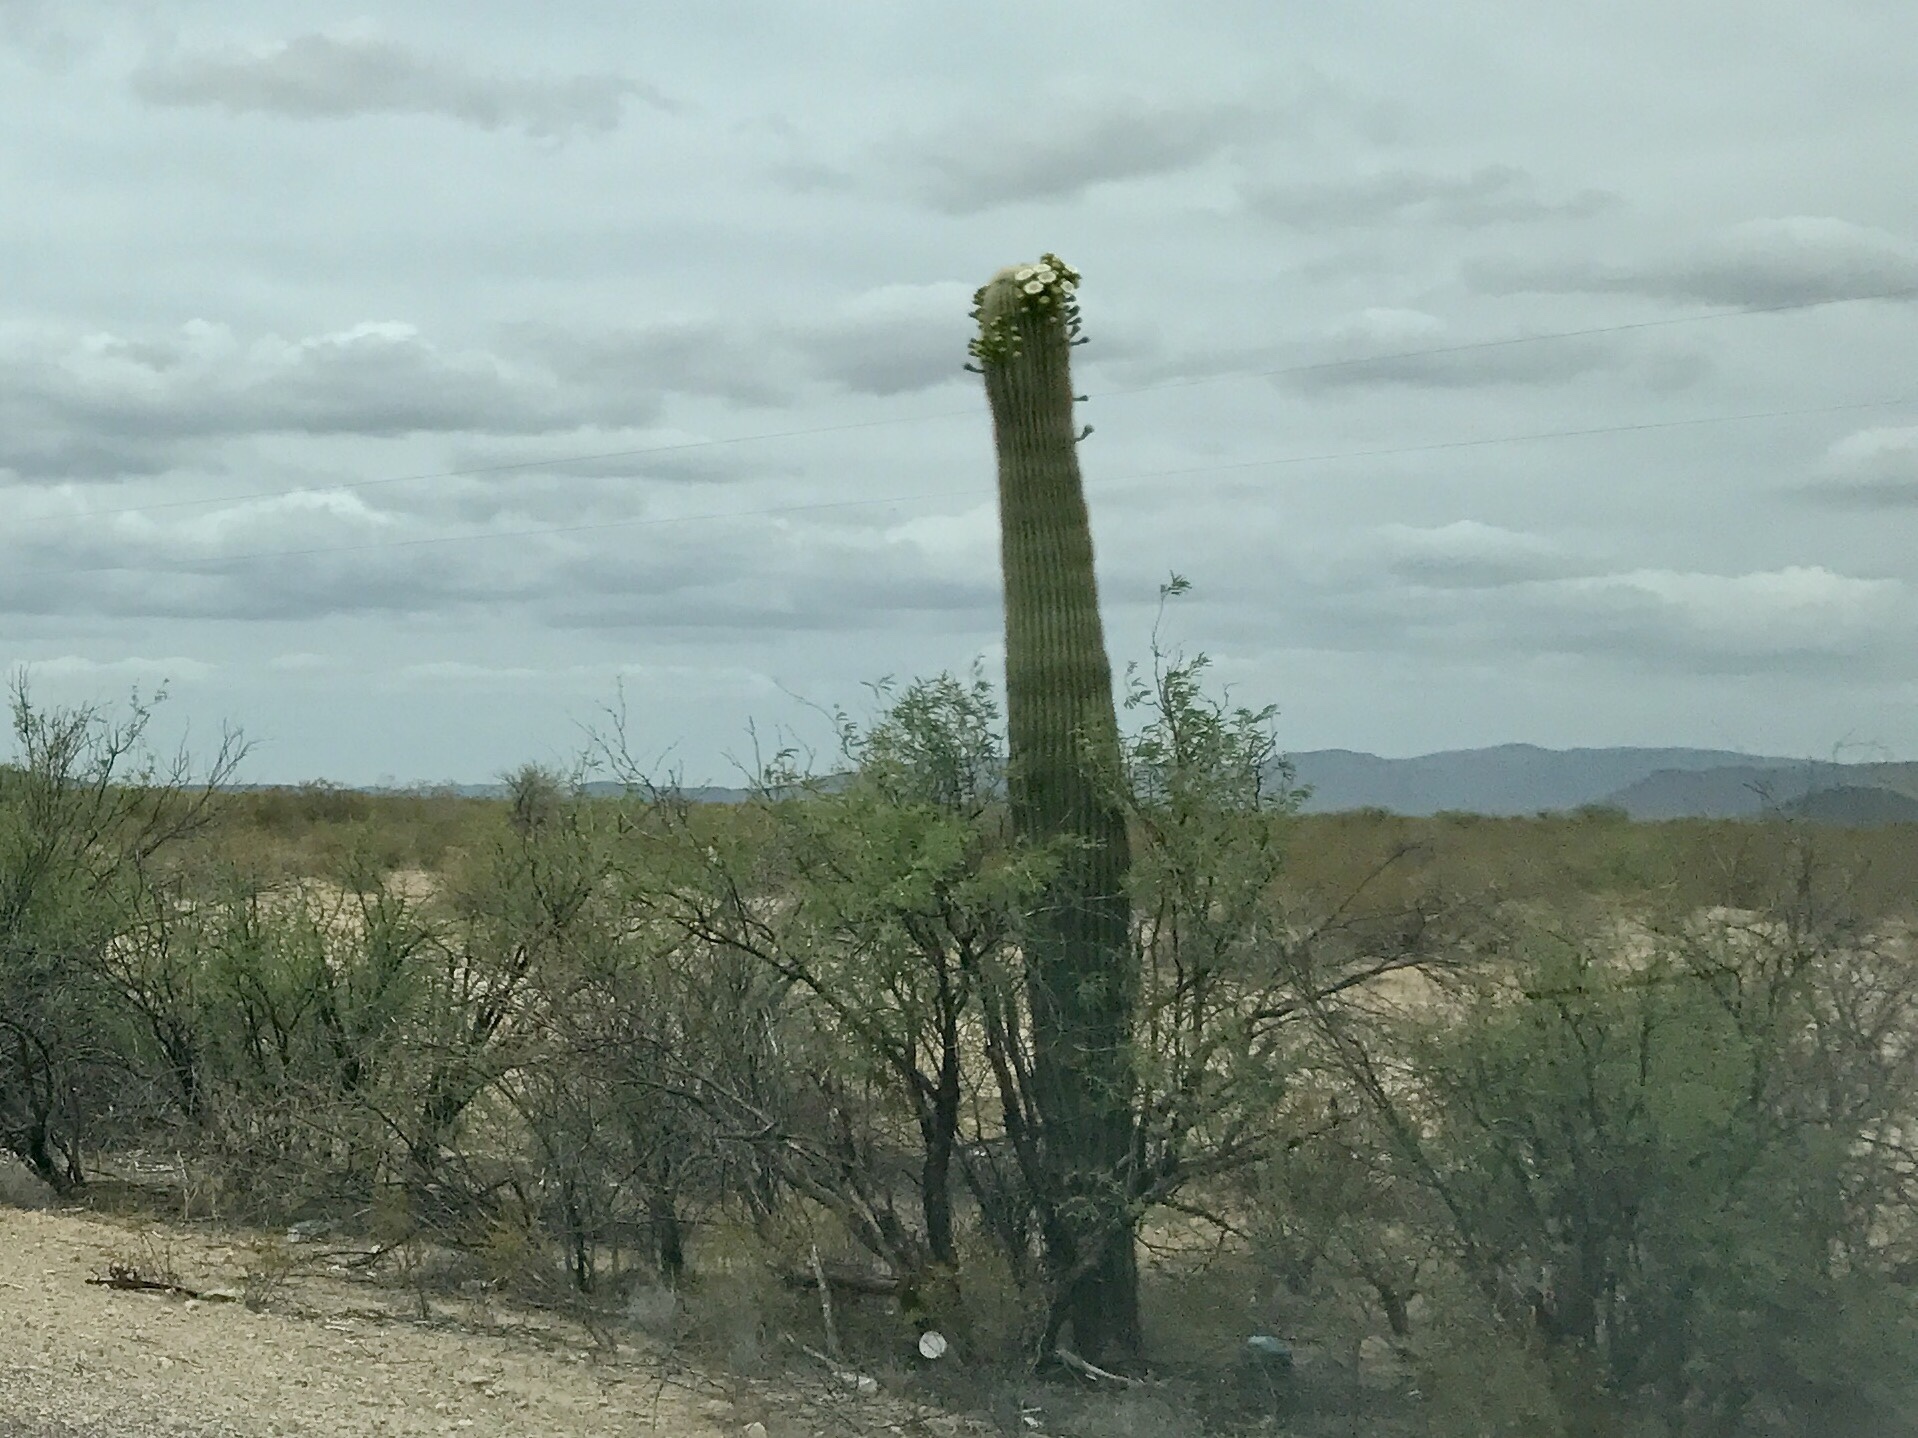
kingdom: Plantae
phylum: Tracheophyta
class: Magnoliopsida
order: Caryophyllales
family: Cactaceae
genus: Carnegiea
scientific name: Carnegiea gigantea
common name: Saguaro
